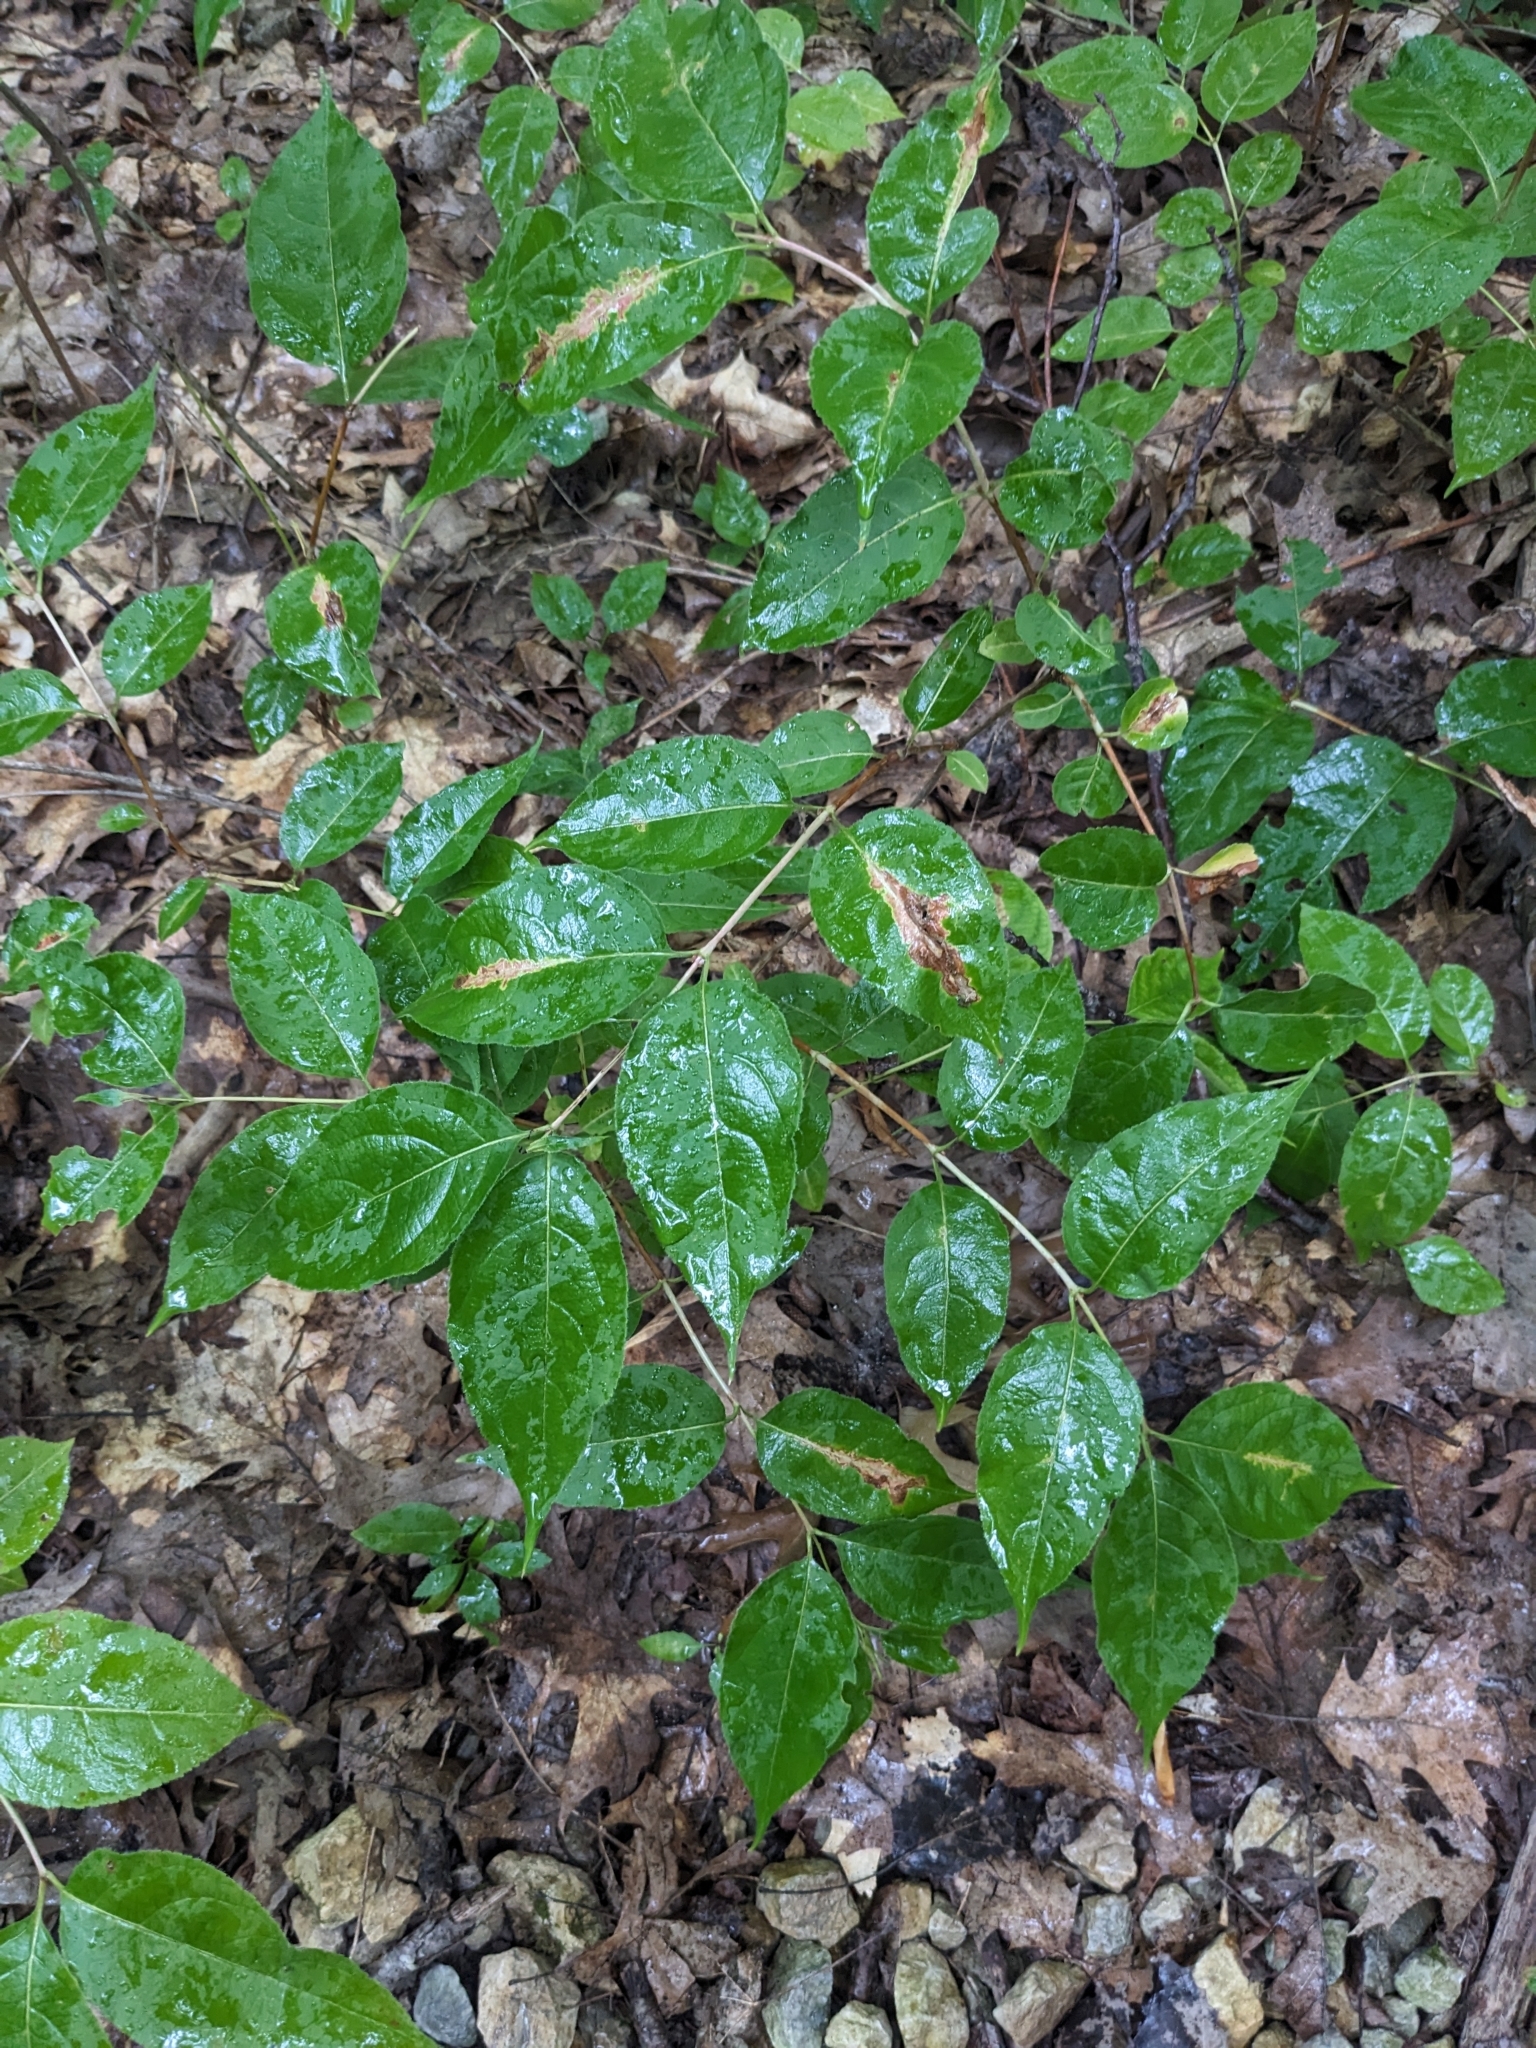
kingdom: Plantae
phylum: Tracheophyta
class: Magnoliopsida
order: Dipsacales
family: Caprifoliaceae
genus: Diervilla
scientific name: Diervilla lonicera
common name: Bush-honeysuckle
